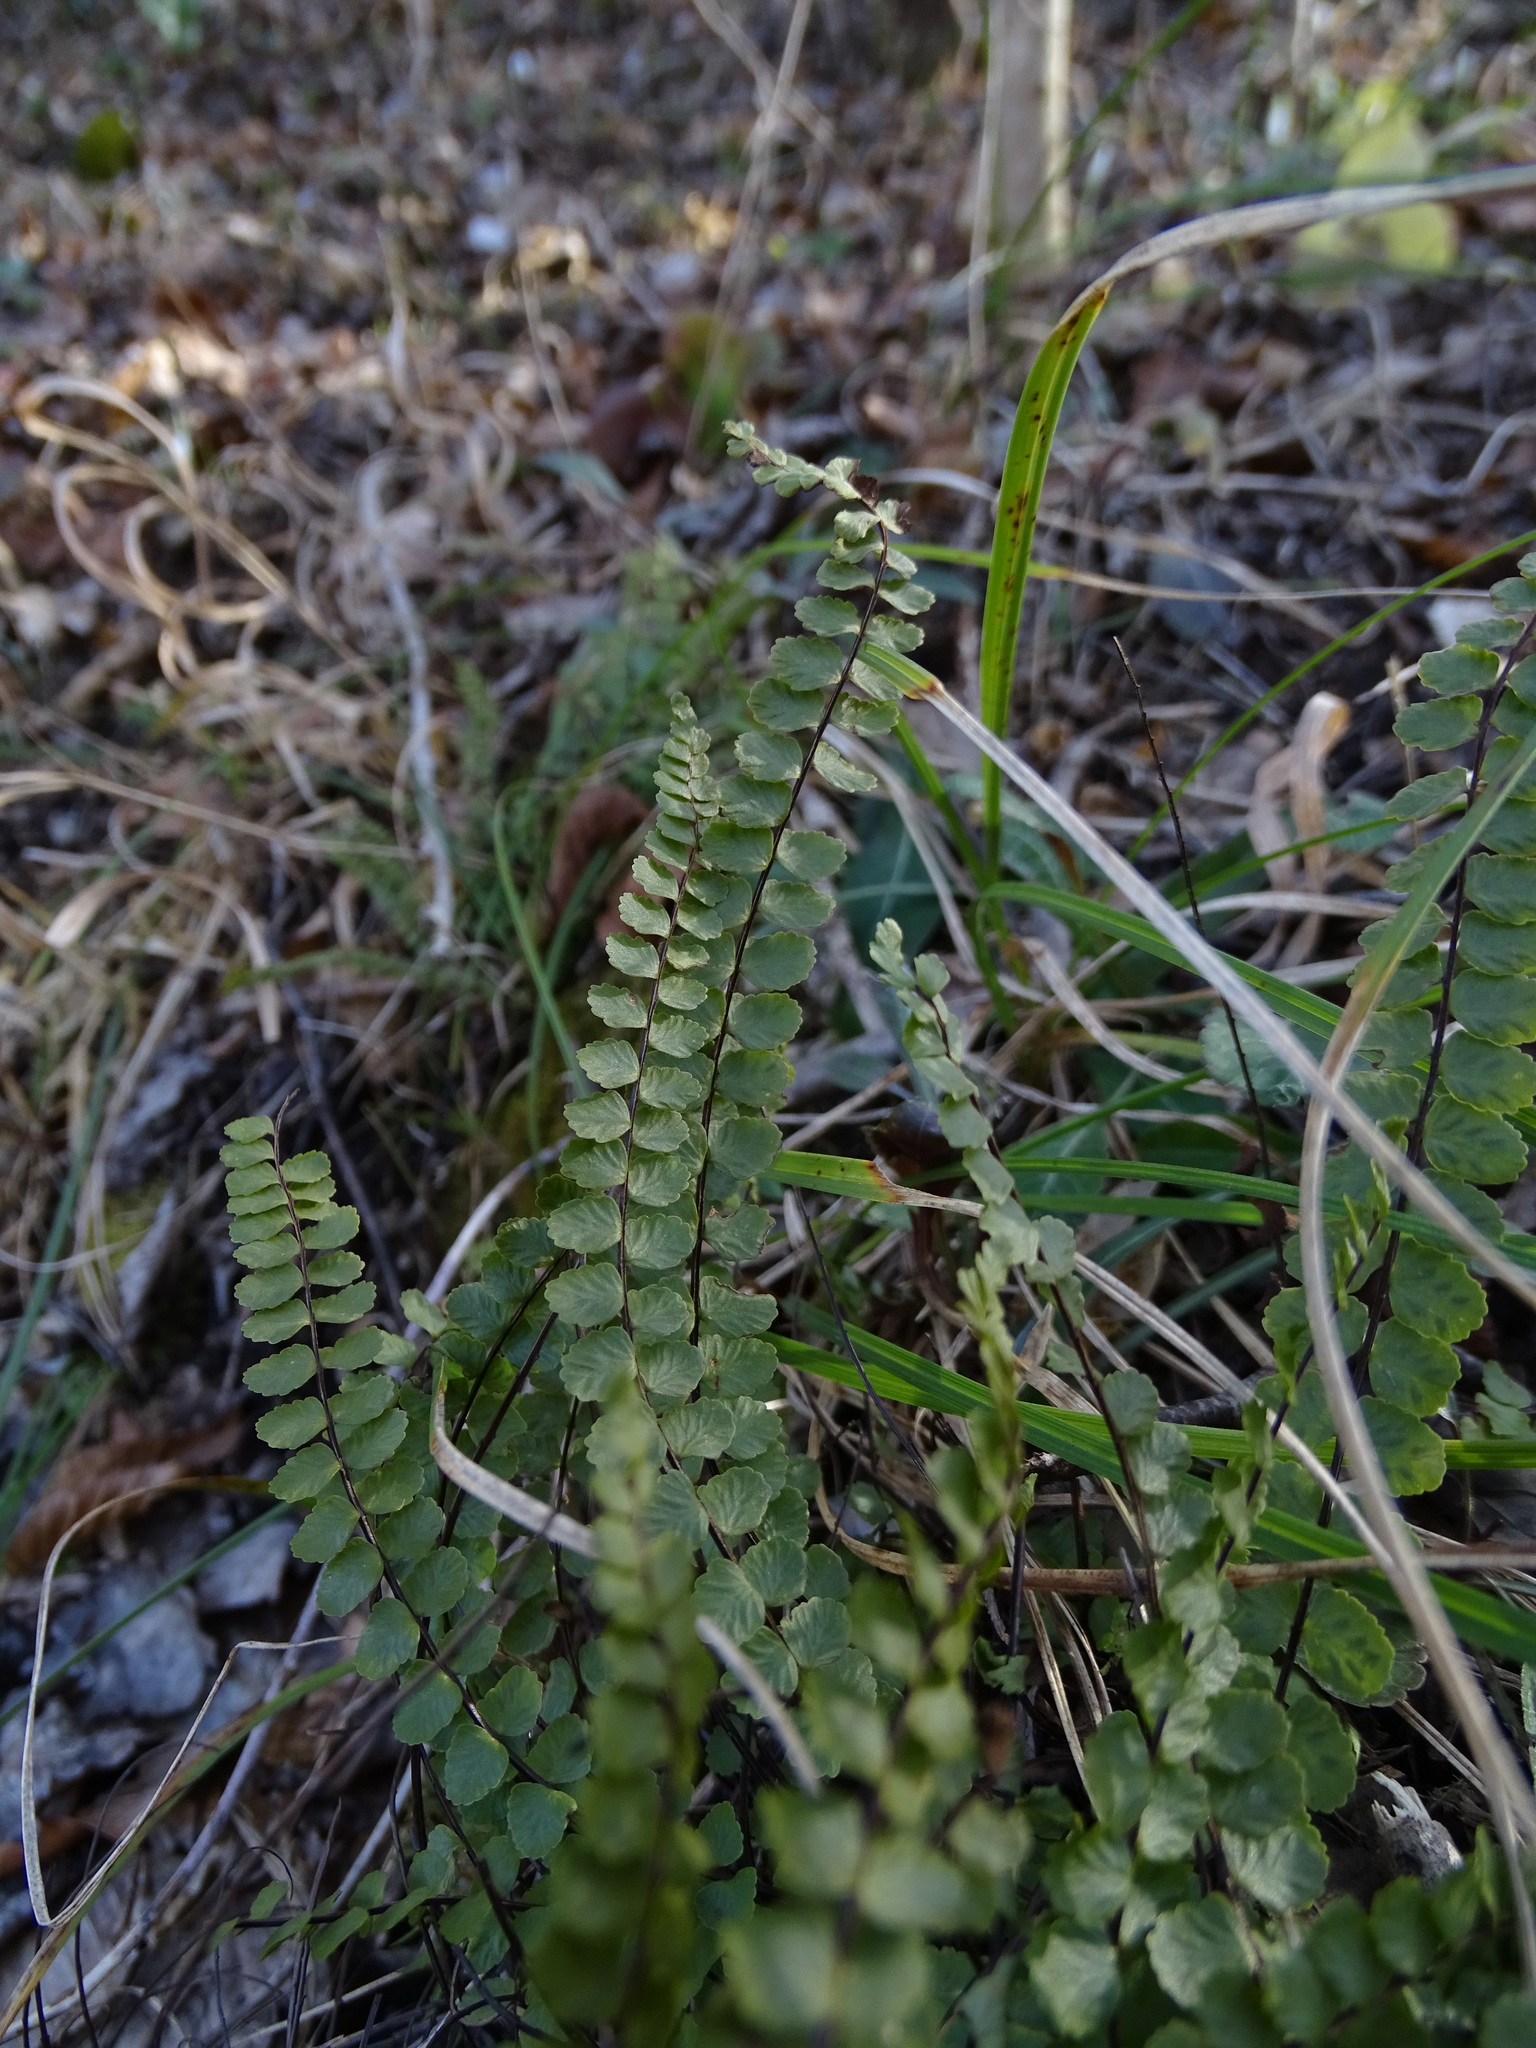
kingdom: Plantae
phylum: Tracheophyta
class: Polypodiopsida
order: Polypodiales
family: Aspleniaceae
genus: Asplenium
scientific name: Asplenium trichomanes
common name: Maidenhair spleenwort
